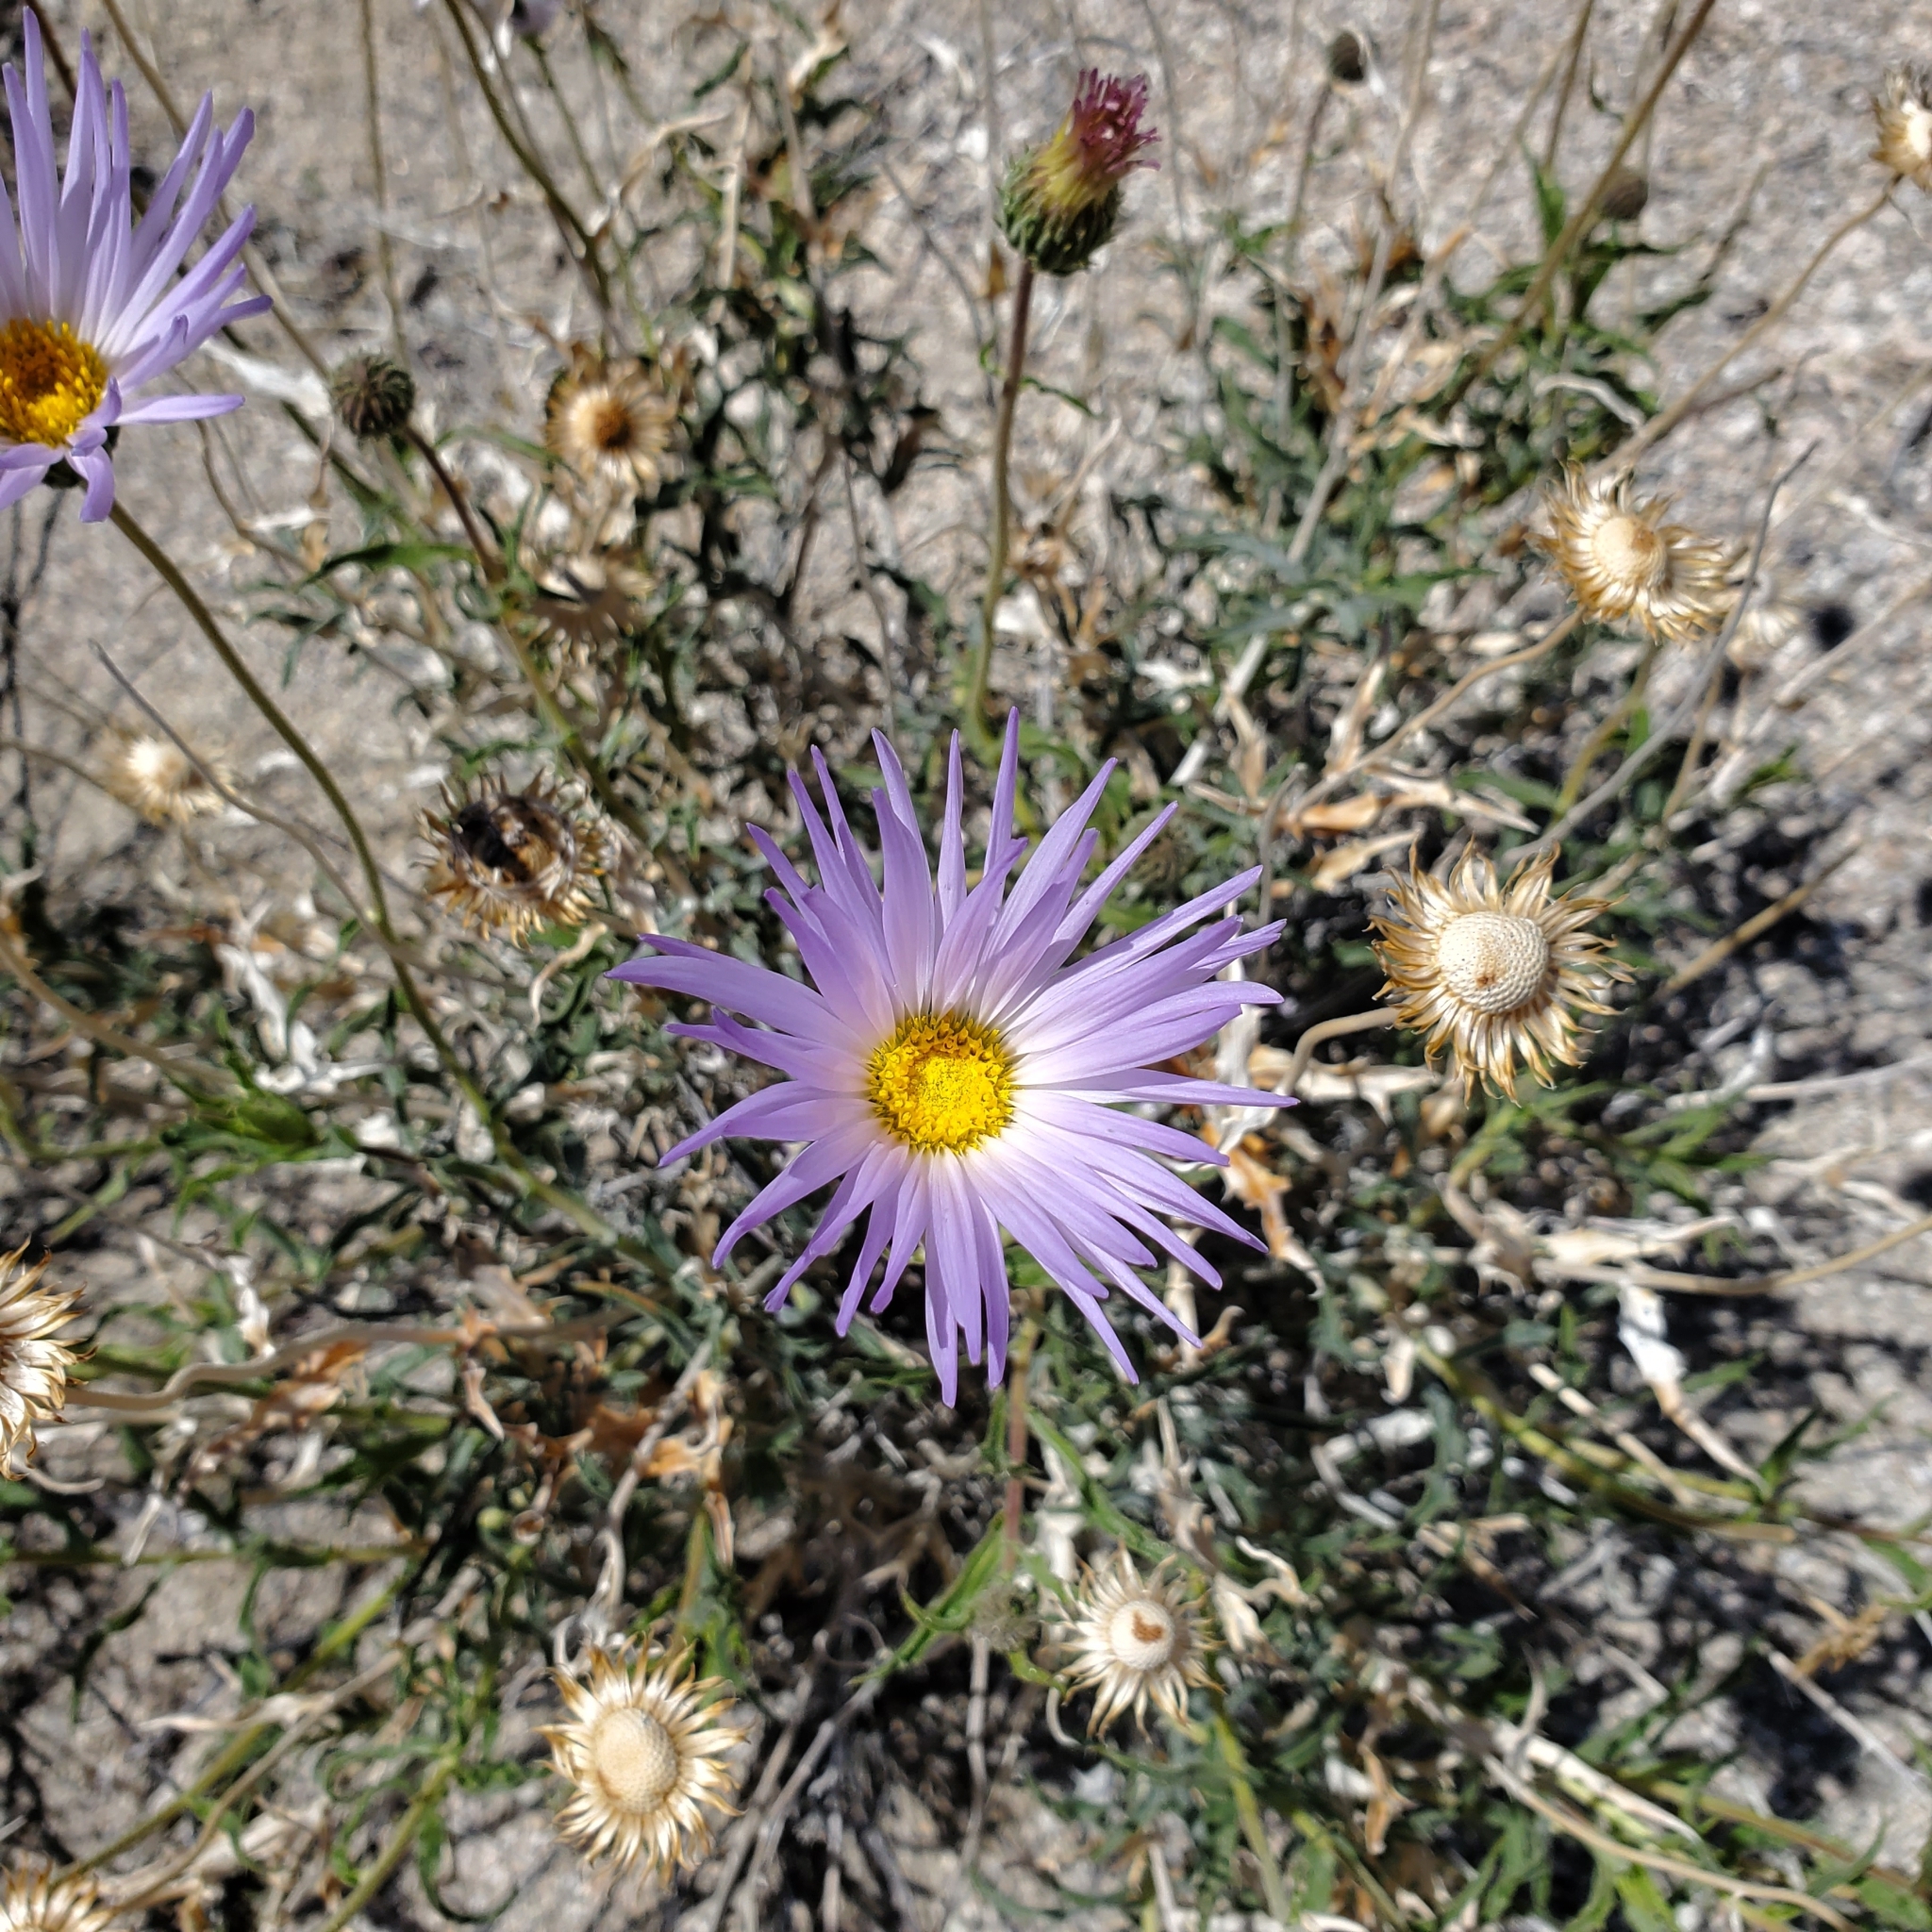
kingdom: Plantae
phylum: Tracheophyta
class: Magnoliopsida
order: Asterales
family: Asteraceae
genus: Xylorhiza
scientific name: Xylorhiza tortifolia
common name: Hurt-leaf woody-aster
